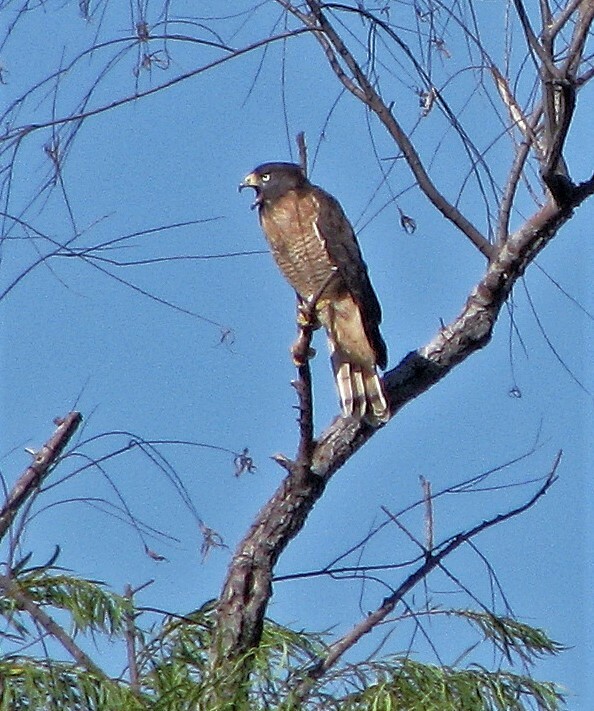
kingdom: Animalia
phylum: Chordata
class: Aves
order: Accipitriformes
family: Accipitridae
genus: Rupornis
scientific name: Rupornis magnirostris
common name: Roadside hawk
